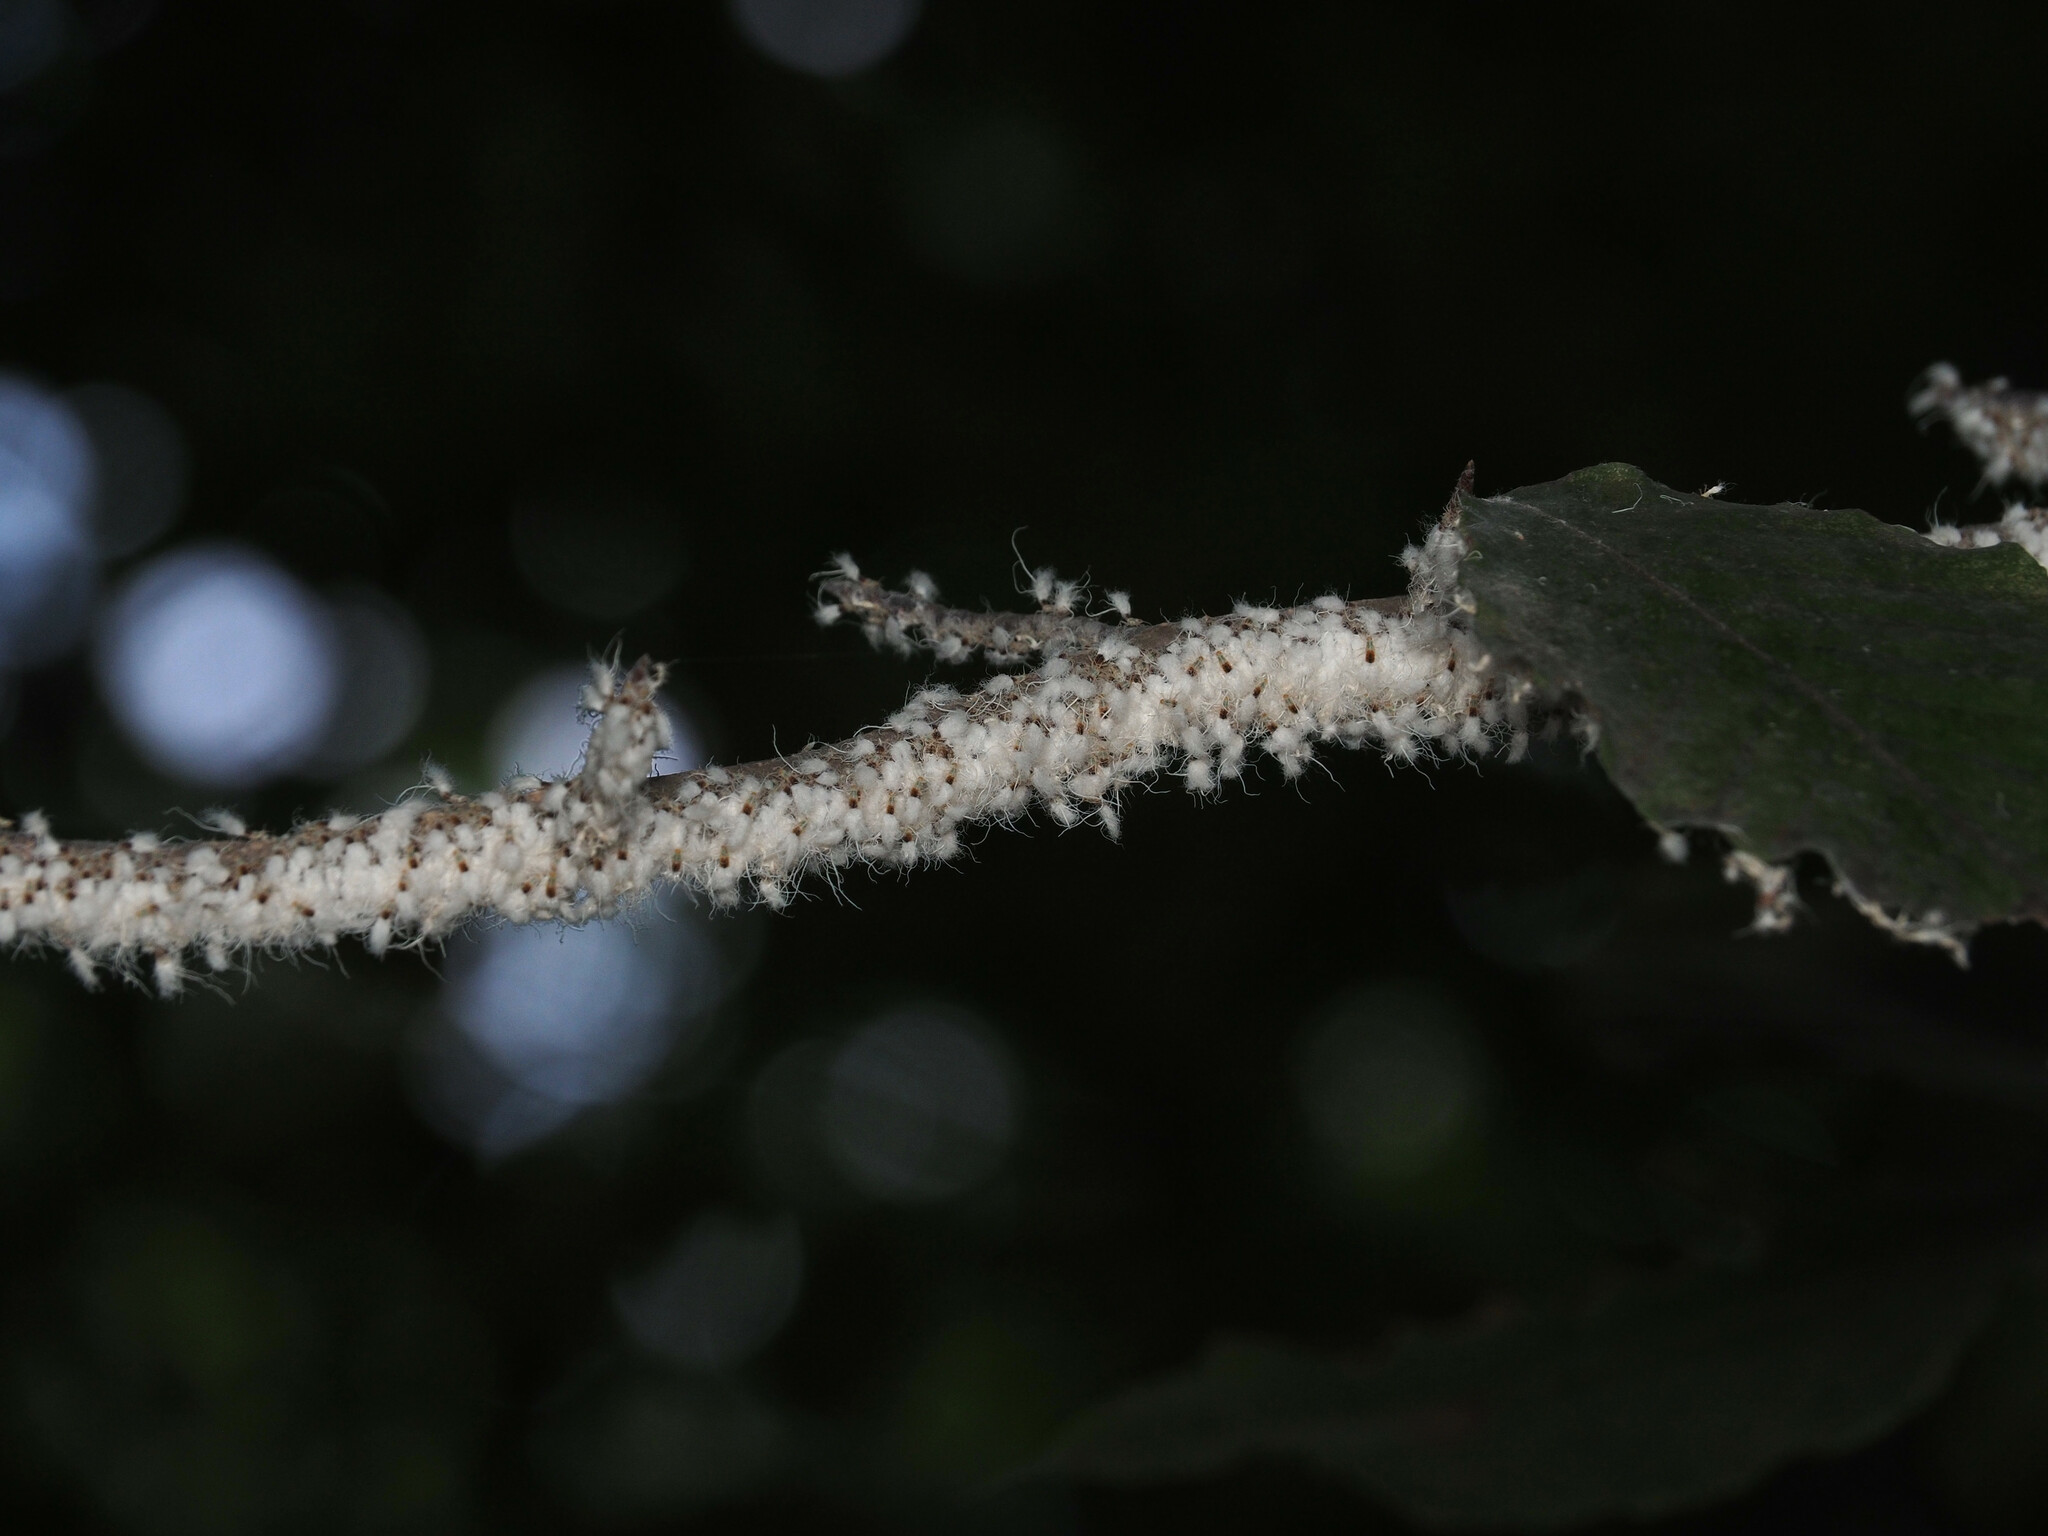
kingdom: Animalia
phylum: Arthropoda
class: Insecta
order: Hemiptera
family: Aphididae
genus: Grylloprociphilus
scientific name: Grylloprociphilus imbricator
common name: Beech blight aphid
